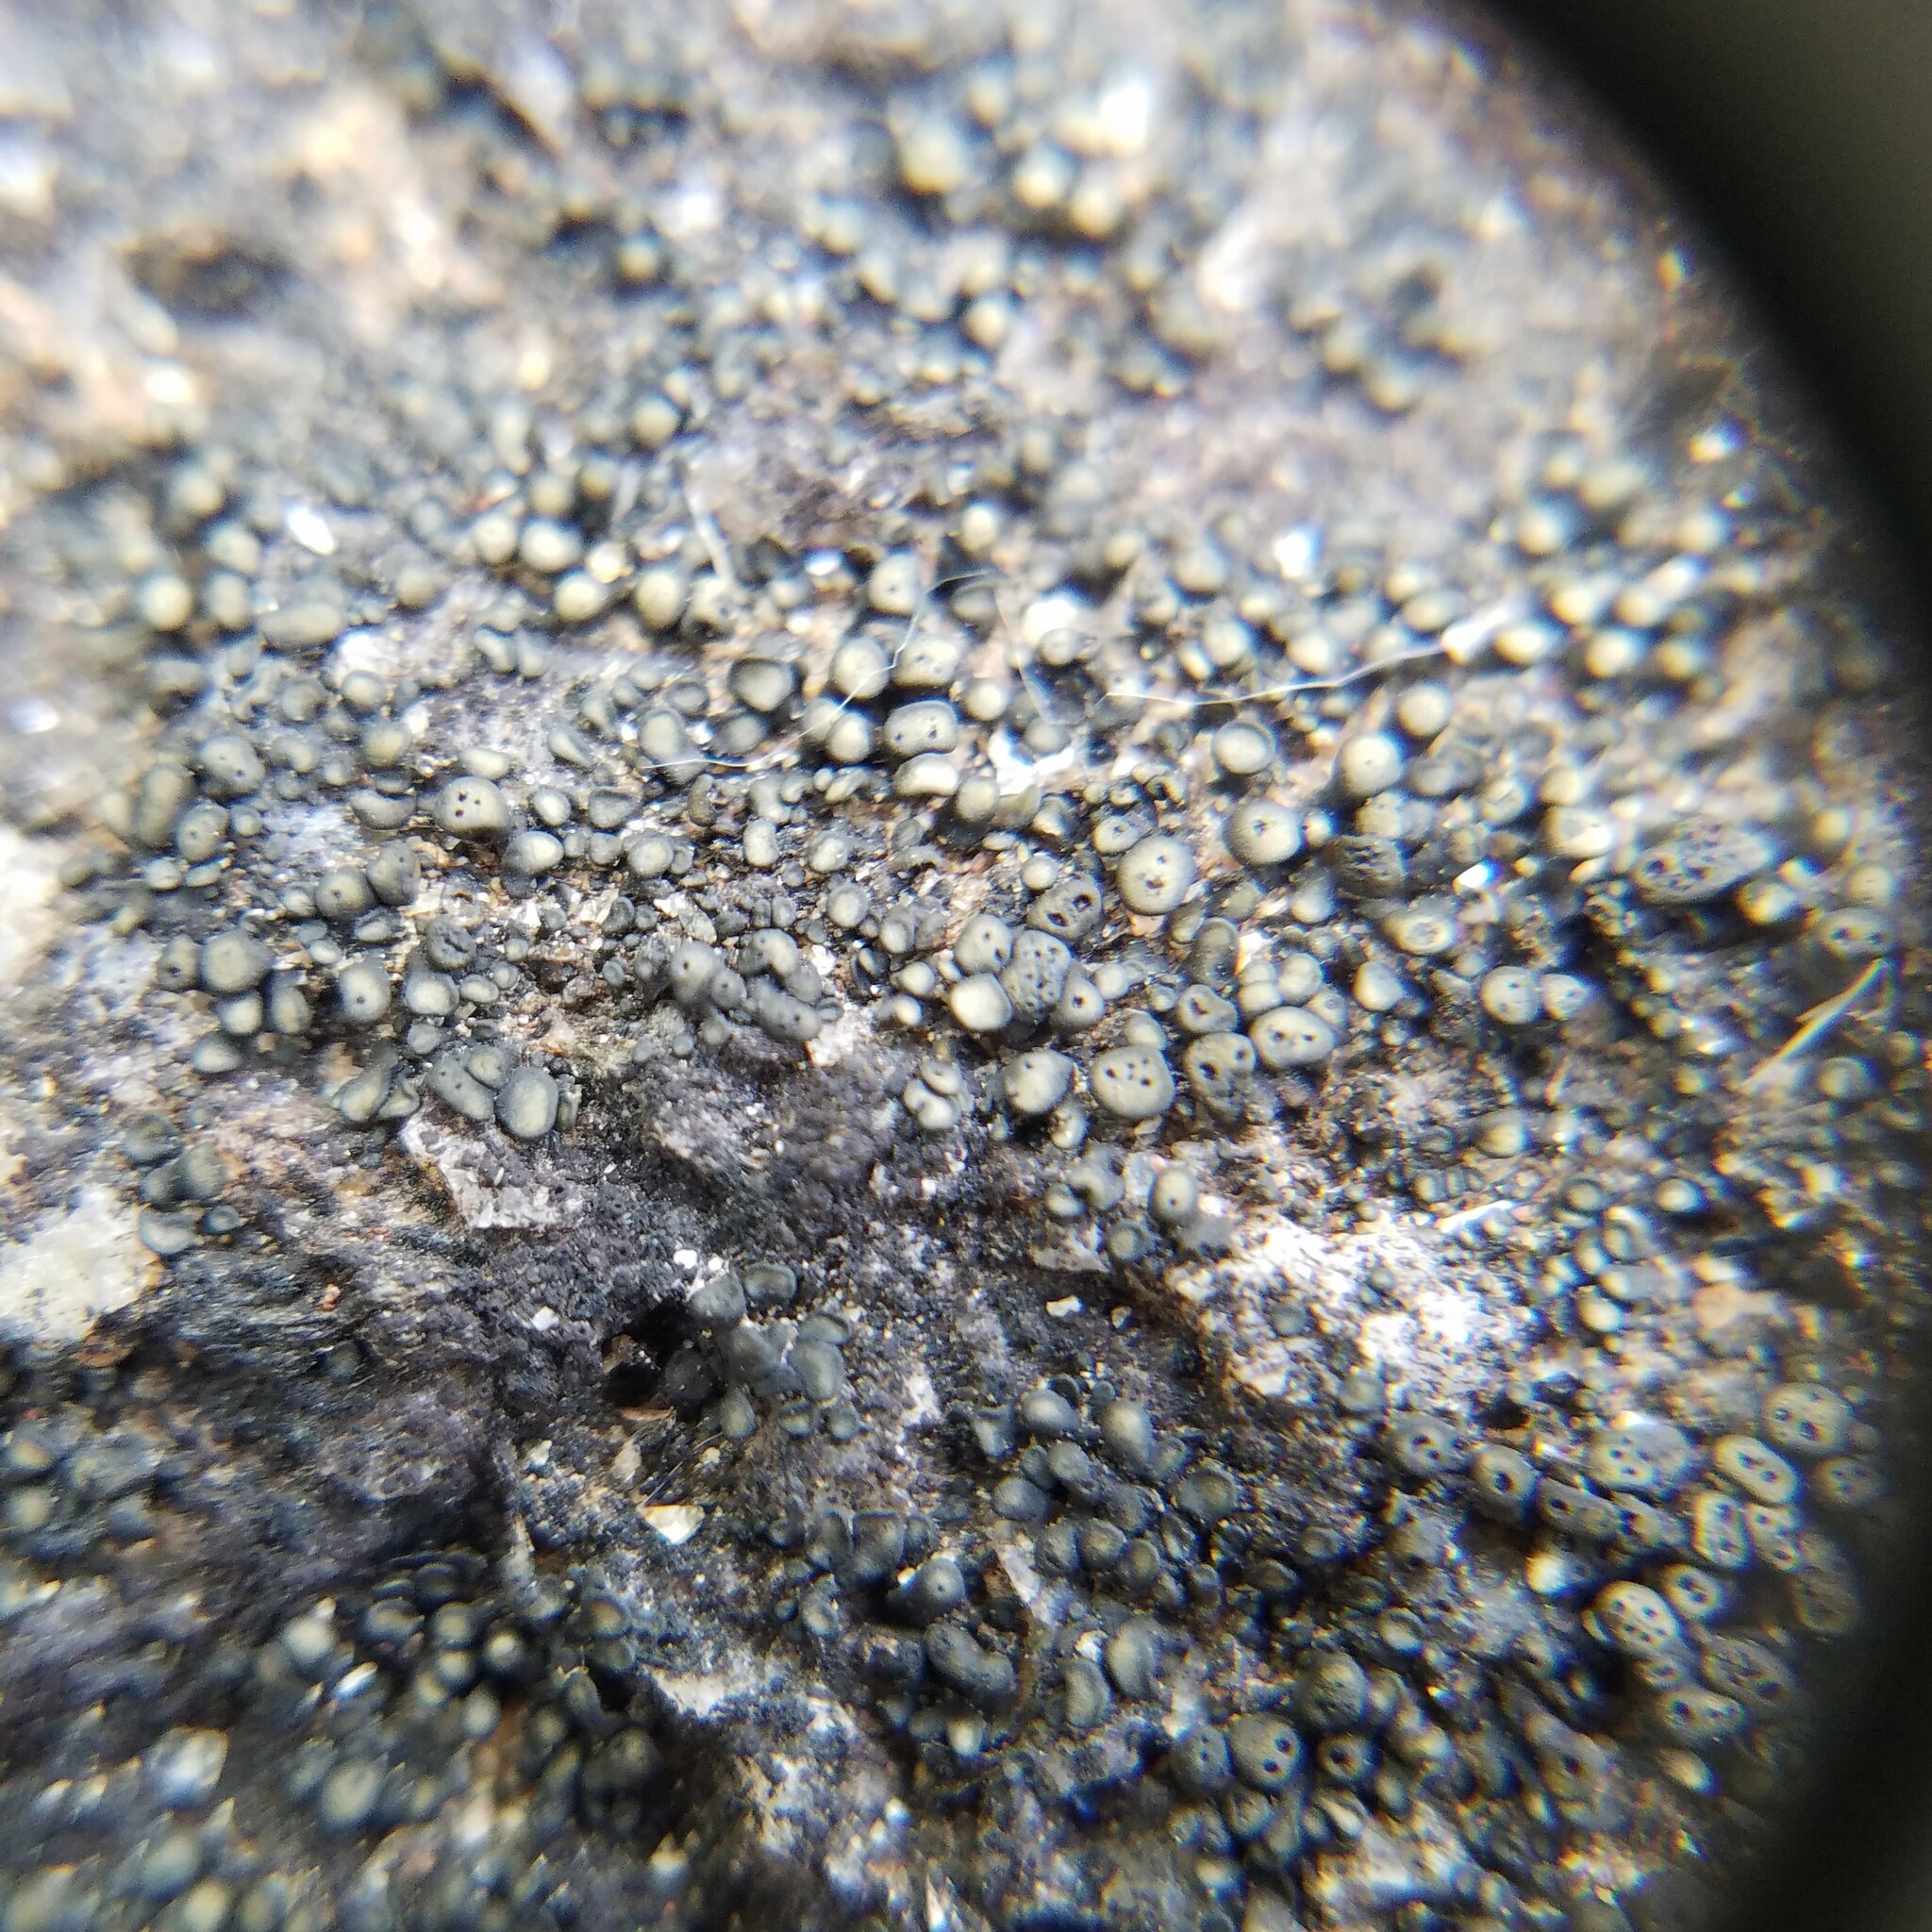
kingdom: Fungi
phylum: Ascomycota
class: Lichinomycetes
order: Lichinales
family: Peltulaceae
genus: Peltula
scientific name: Peltula cylindrica
